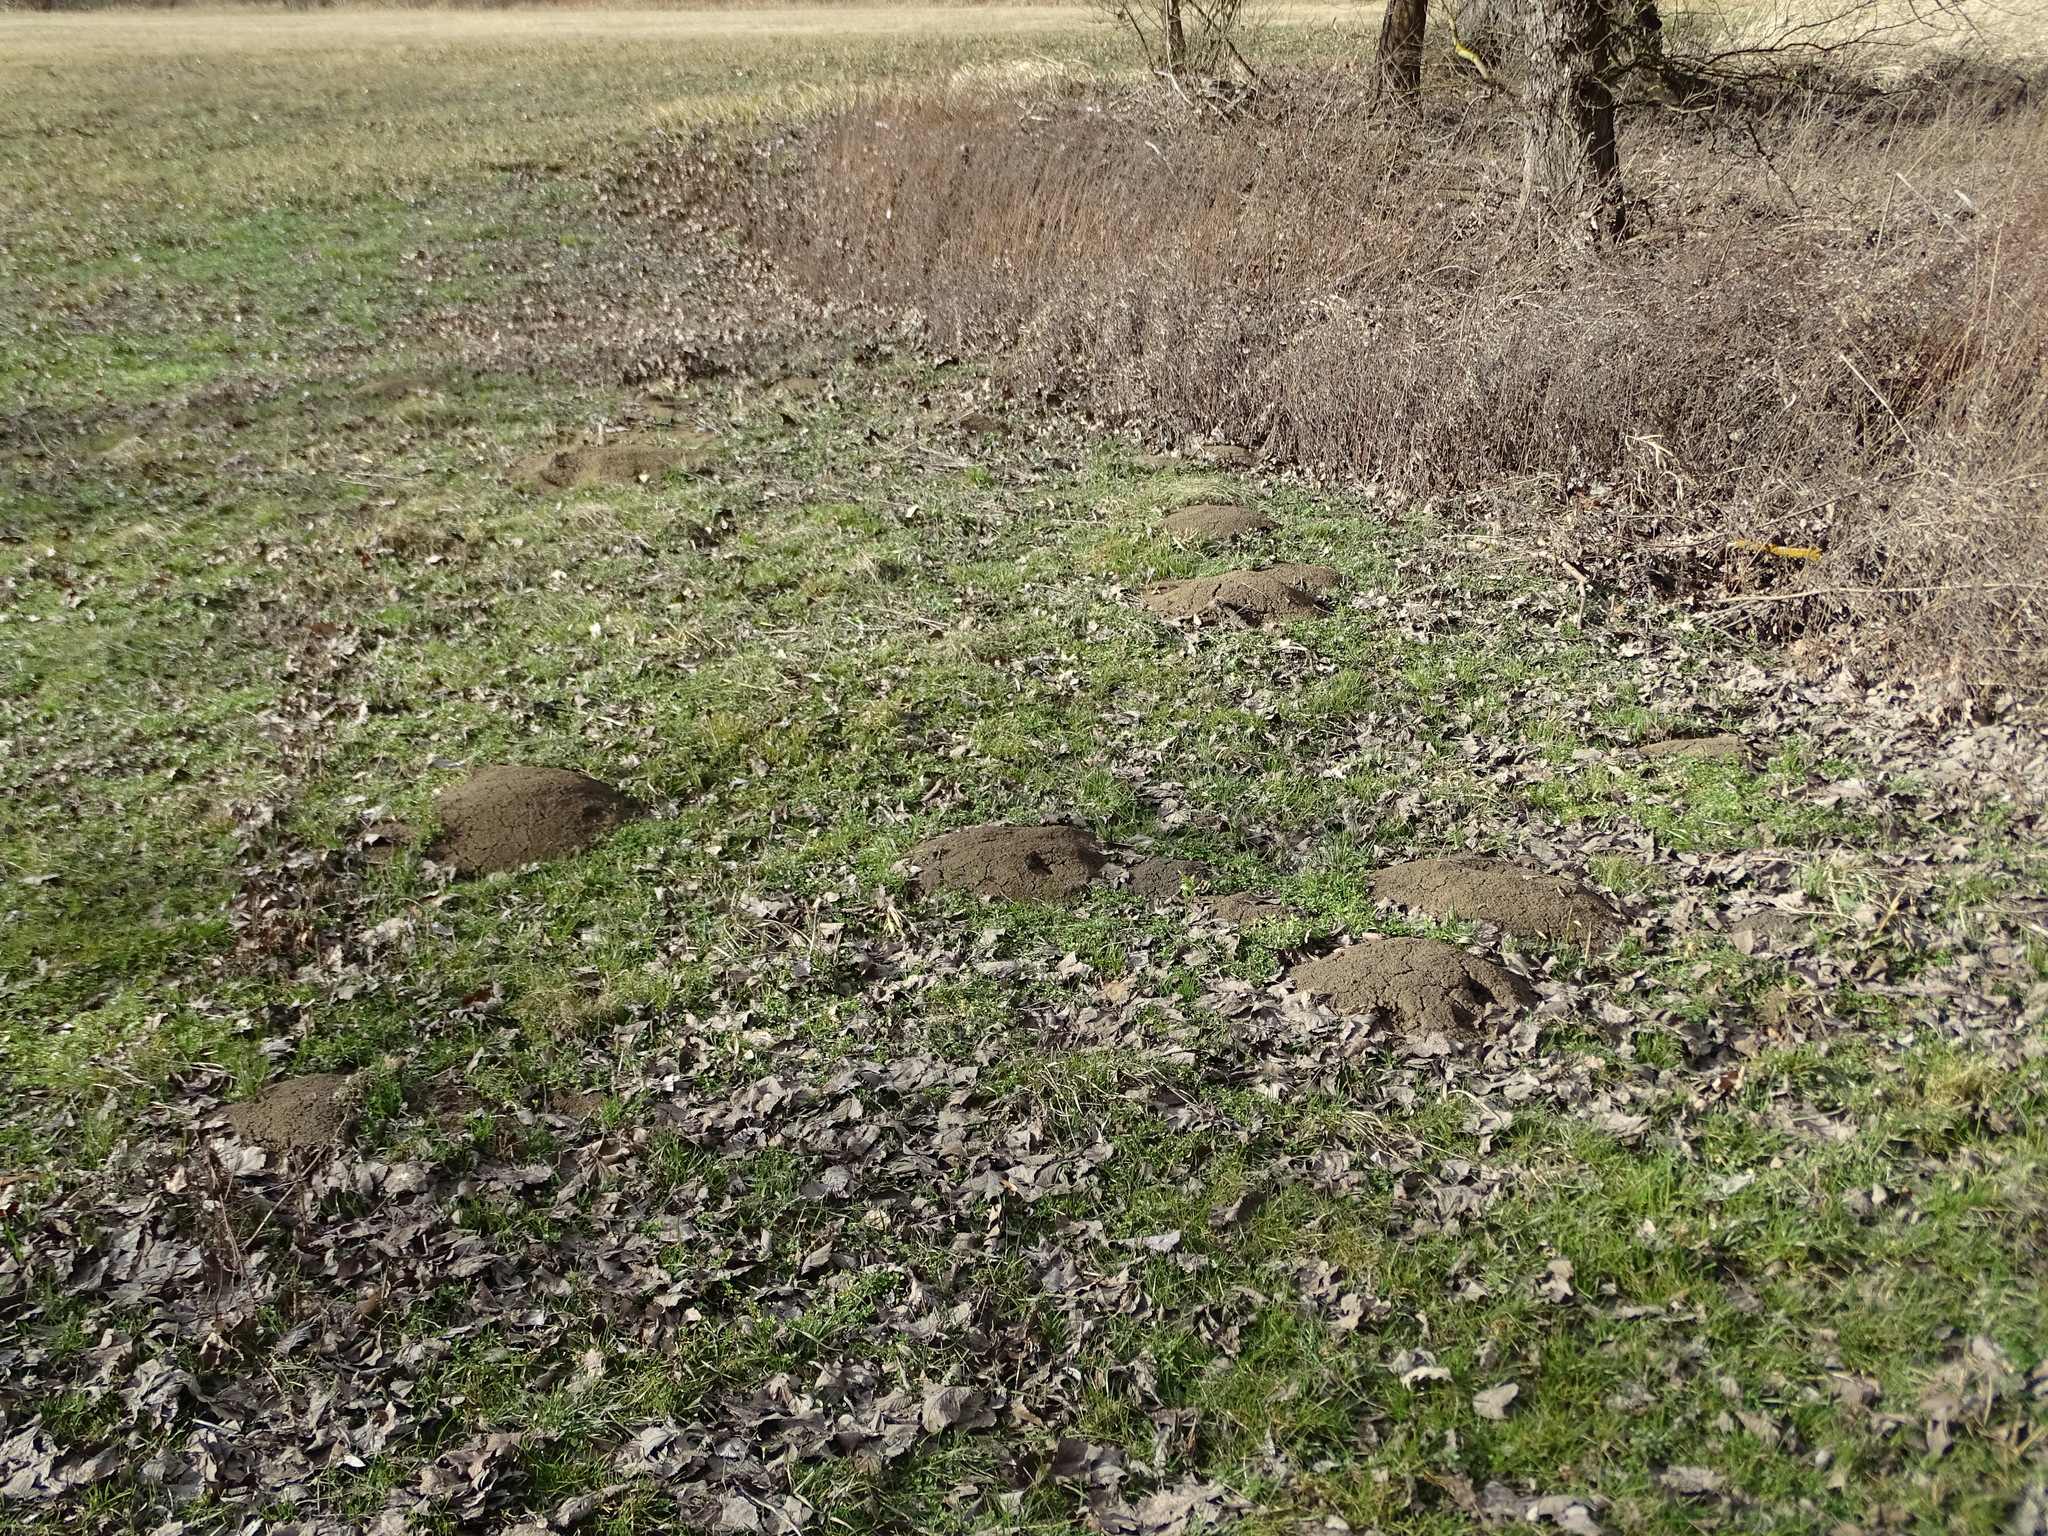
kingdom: Animalia
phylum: Chordata
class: Mammalia
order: Soricomorpha
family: Talpidae
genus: Talpa
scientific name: Talpa europaea
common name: European mole
